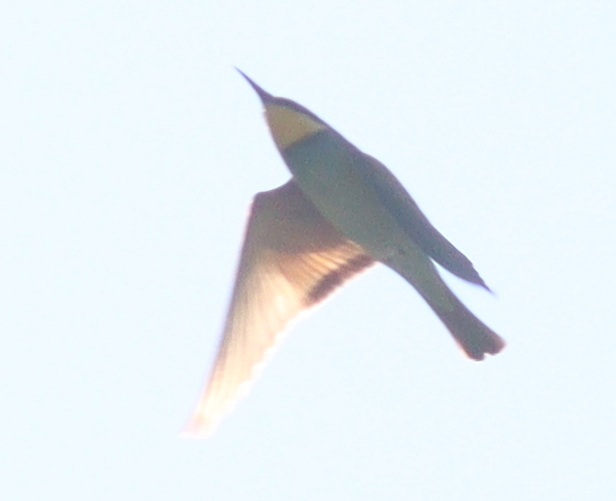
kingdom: Animalia
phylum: Chordata
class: Aves
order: Coraciiformes
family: Meropidae
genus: Merops
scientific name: Merops apiaster
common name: European bee-eater
